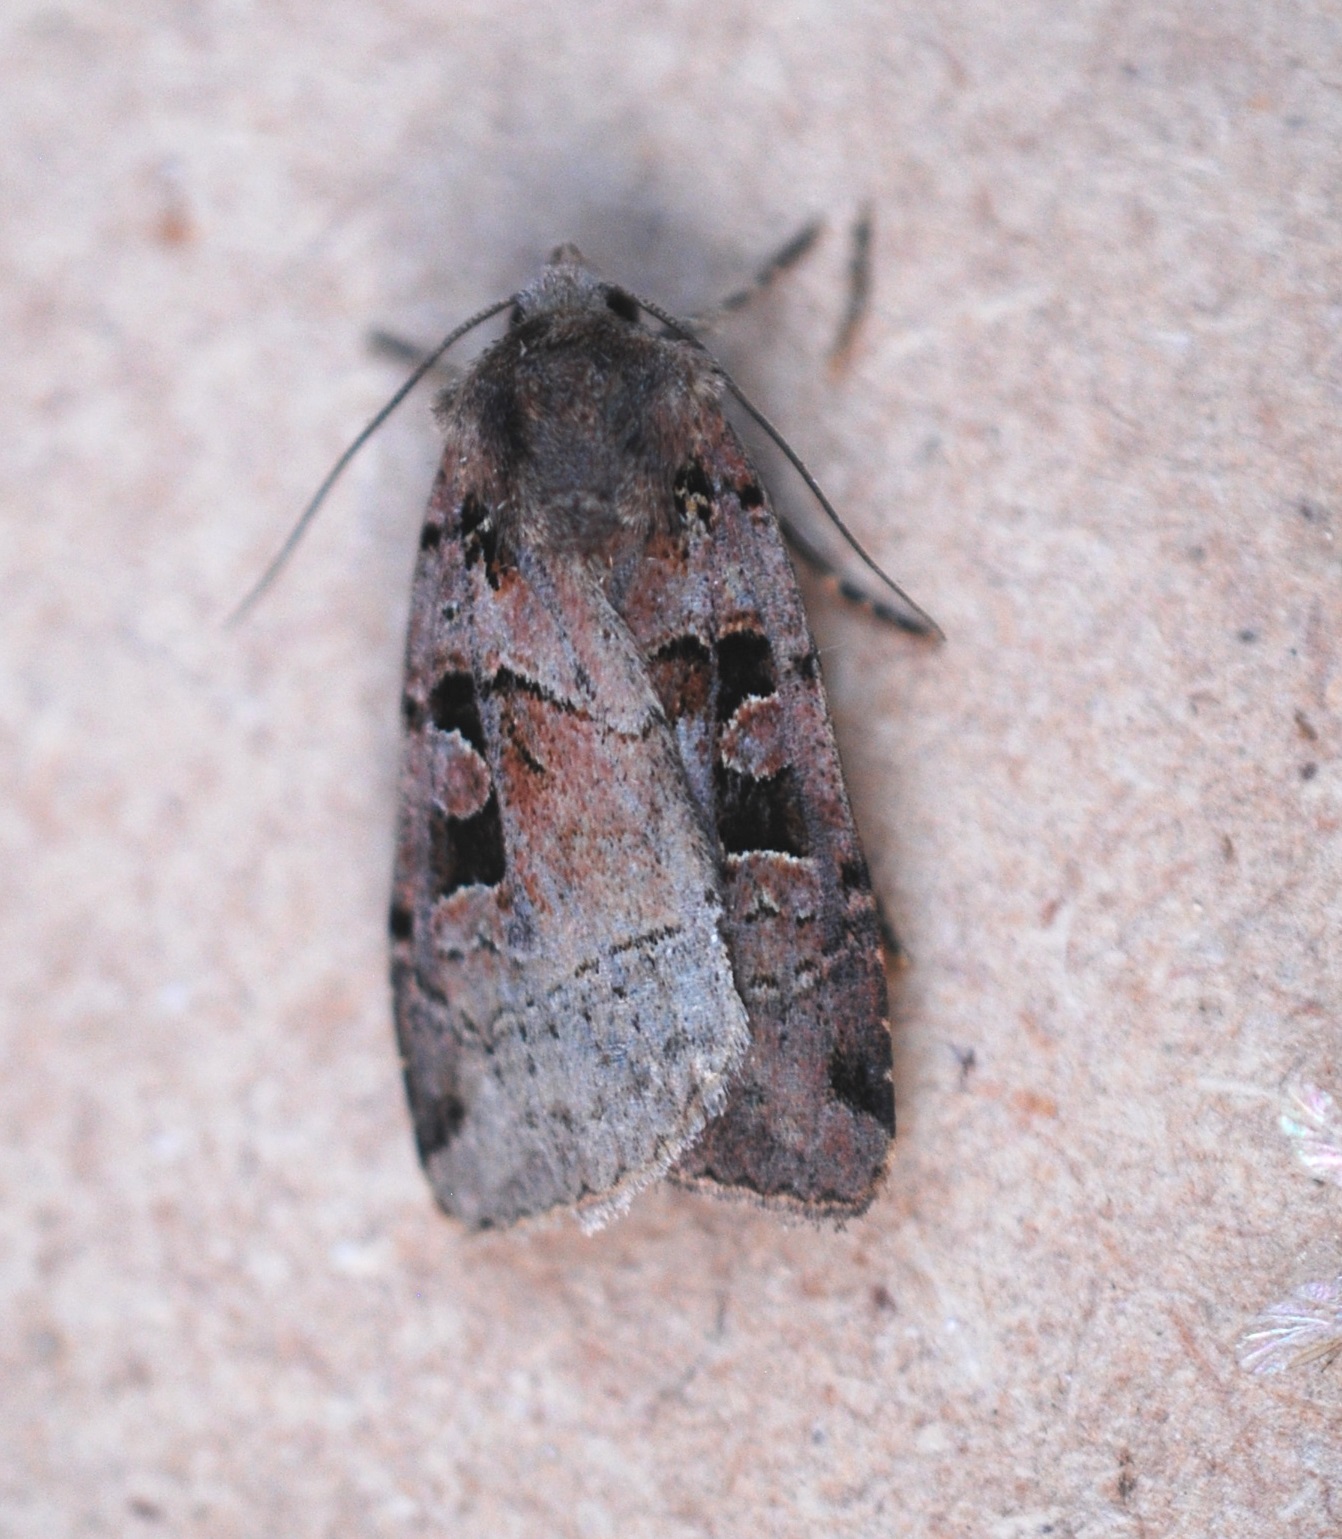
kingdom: Animalia
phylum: Arthropoda
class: Insecta
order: Lepidoptera
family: Noctuidae
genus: Xestia
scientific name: Xestia triangulum
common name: Double square-spot
